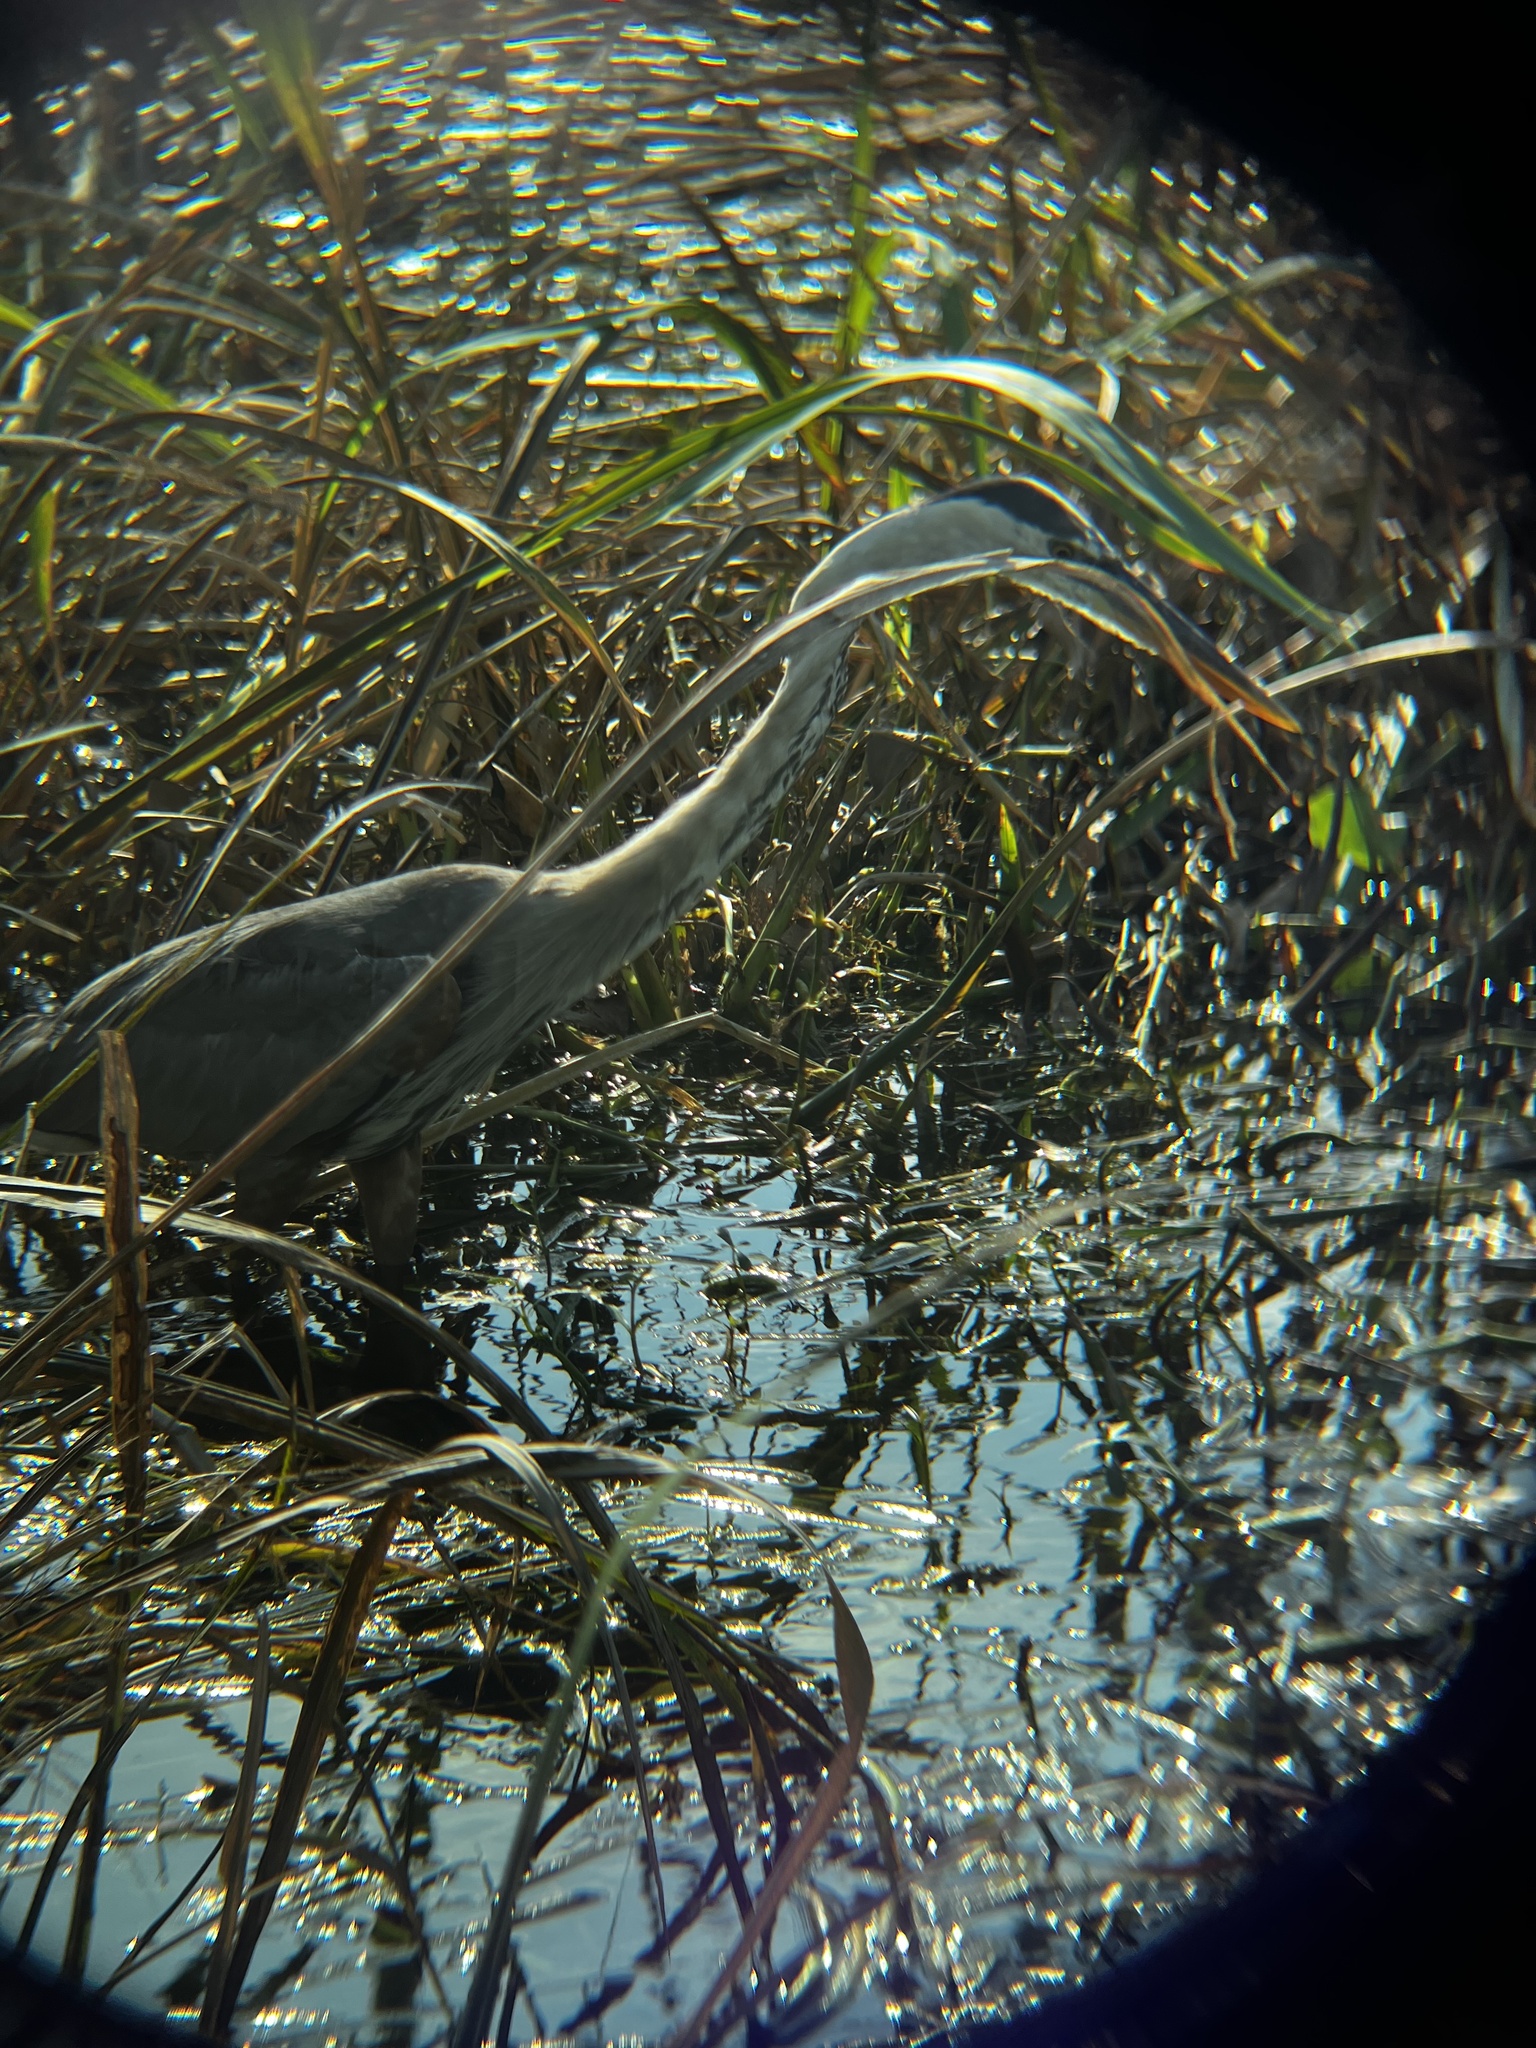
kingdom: Animalia
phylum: Chordata
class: Aves
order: Pelecaniformes
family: Ardeidae
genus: Ardea
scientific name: Ardea herodias
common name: Great blue heron
